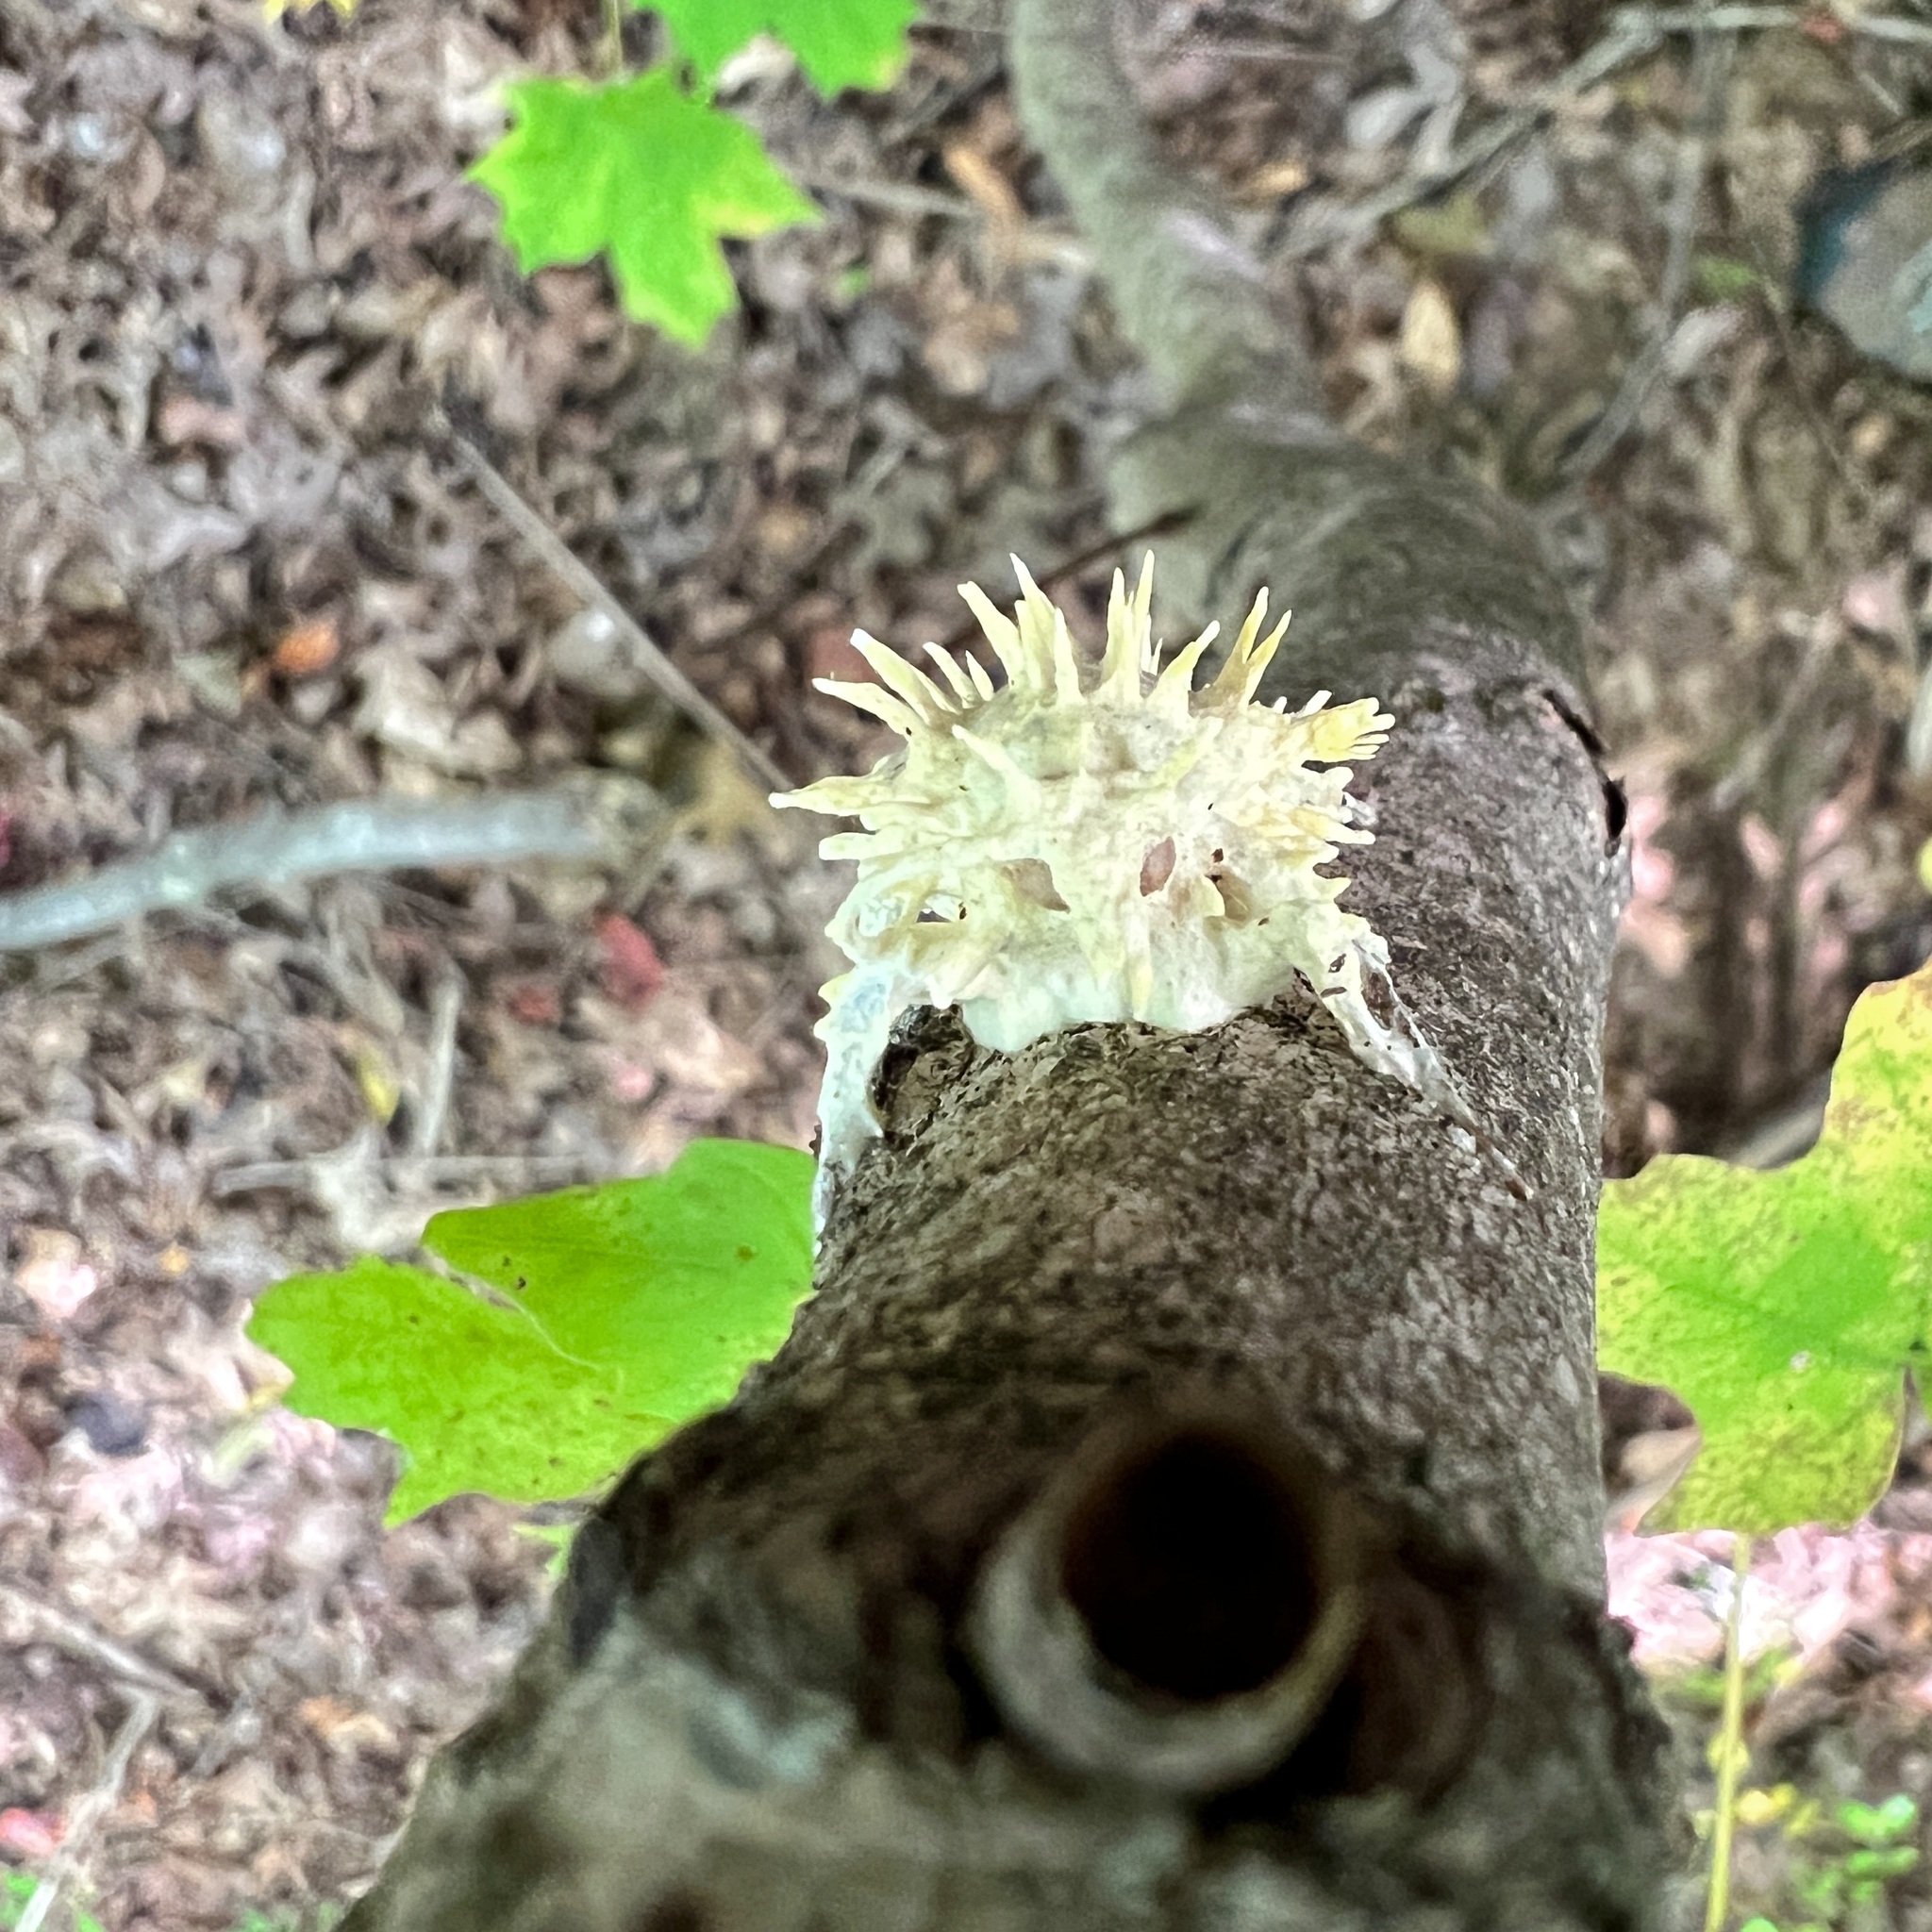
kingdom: Fungi
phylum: Ascomycota
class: Sordariomycetes
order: Hypocreales
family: Cordycipitaceae
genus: Akanthomyces
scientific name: Akanthomyces aculeatus
